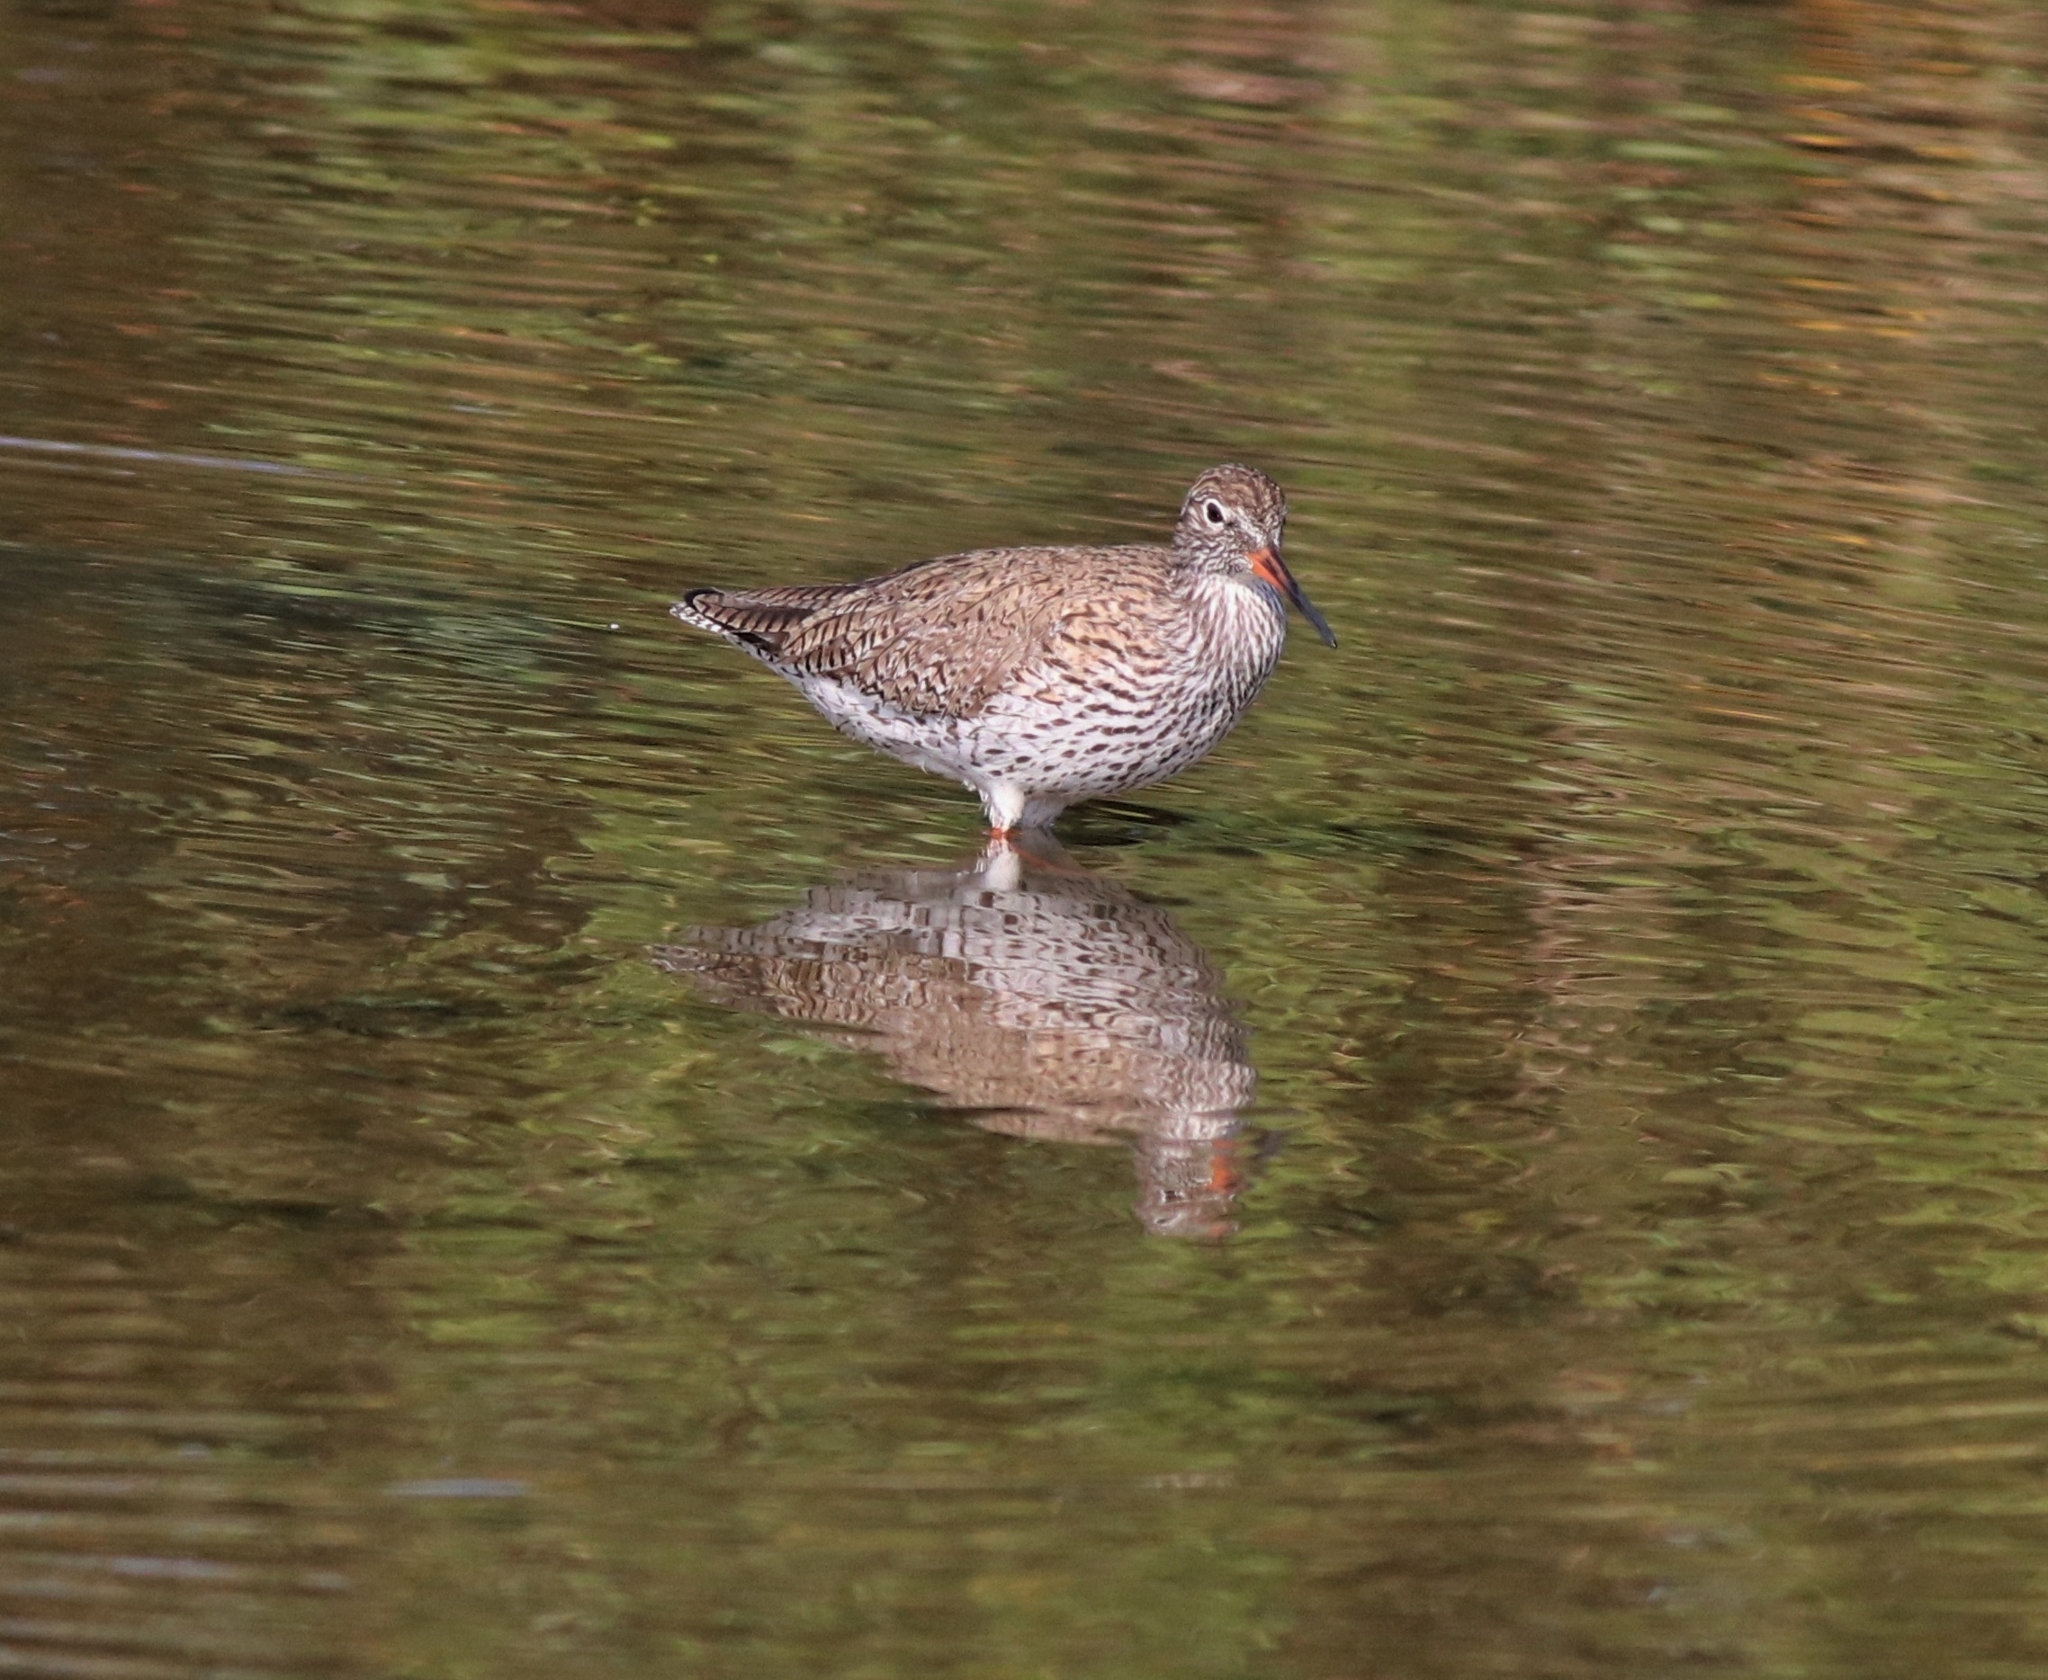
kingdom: Animalia
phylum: Chordata
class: Aves
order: Charadriiformes
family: Scolopacidae
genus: Tringa
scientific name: Tringa totanus
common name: Common redshank
